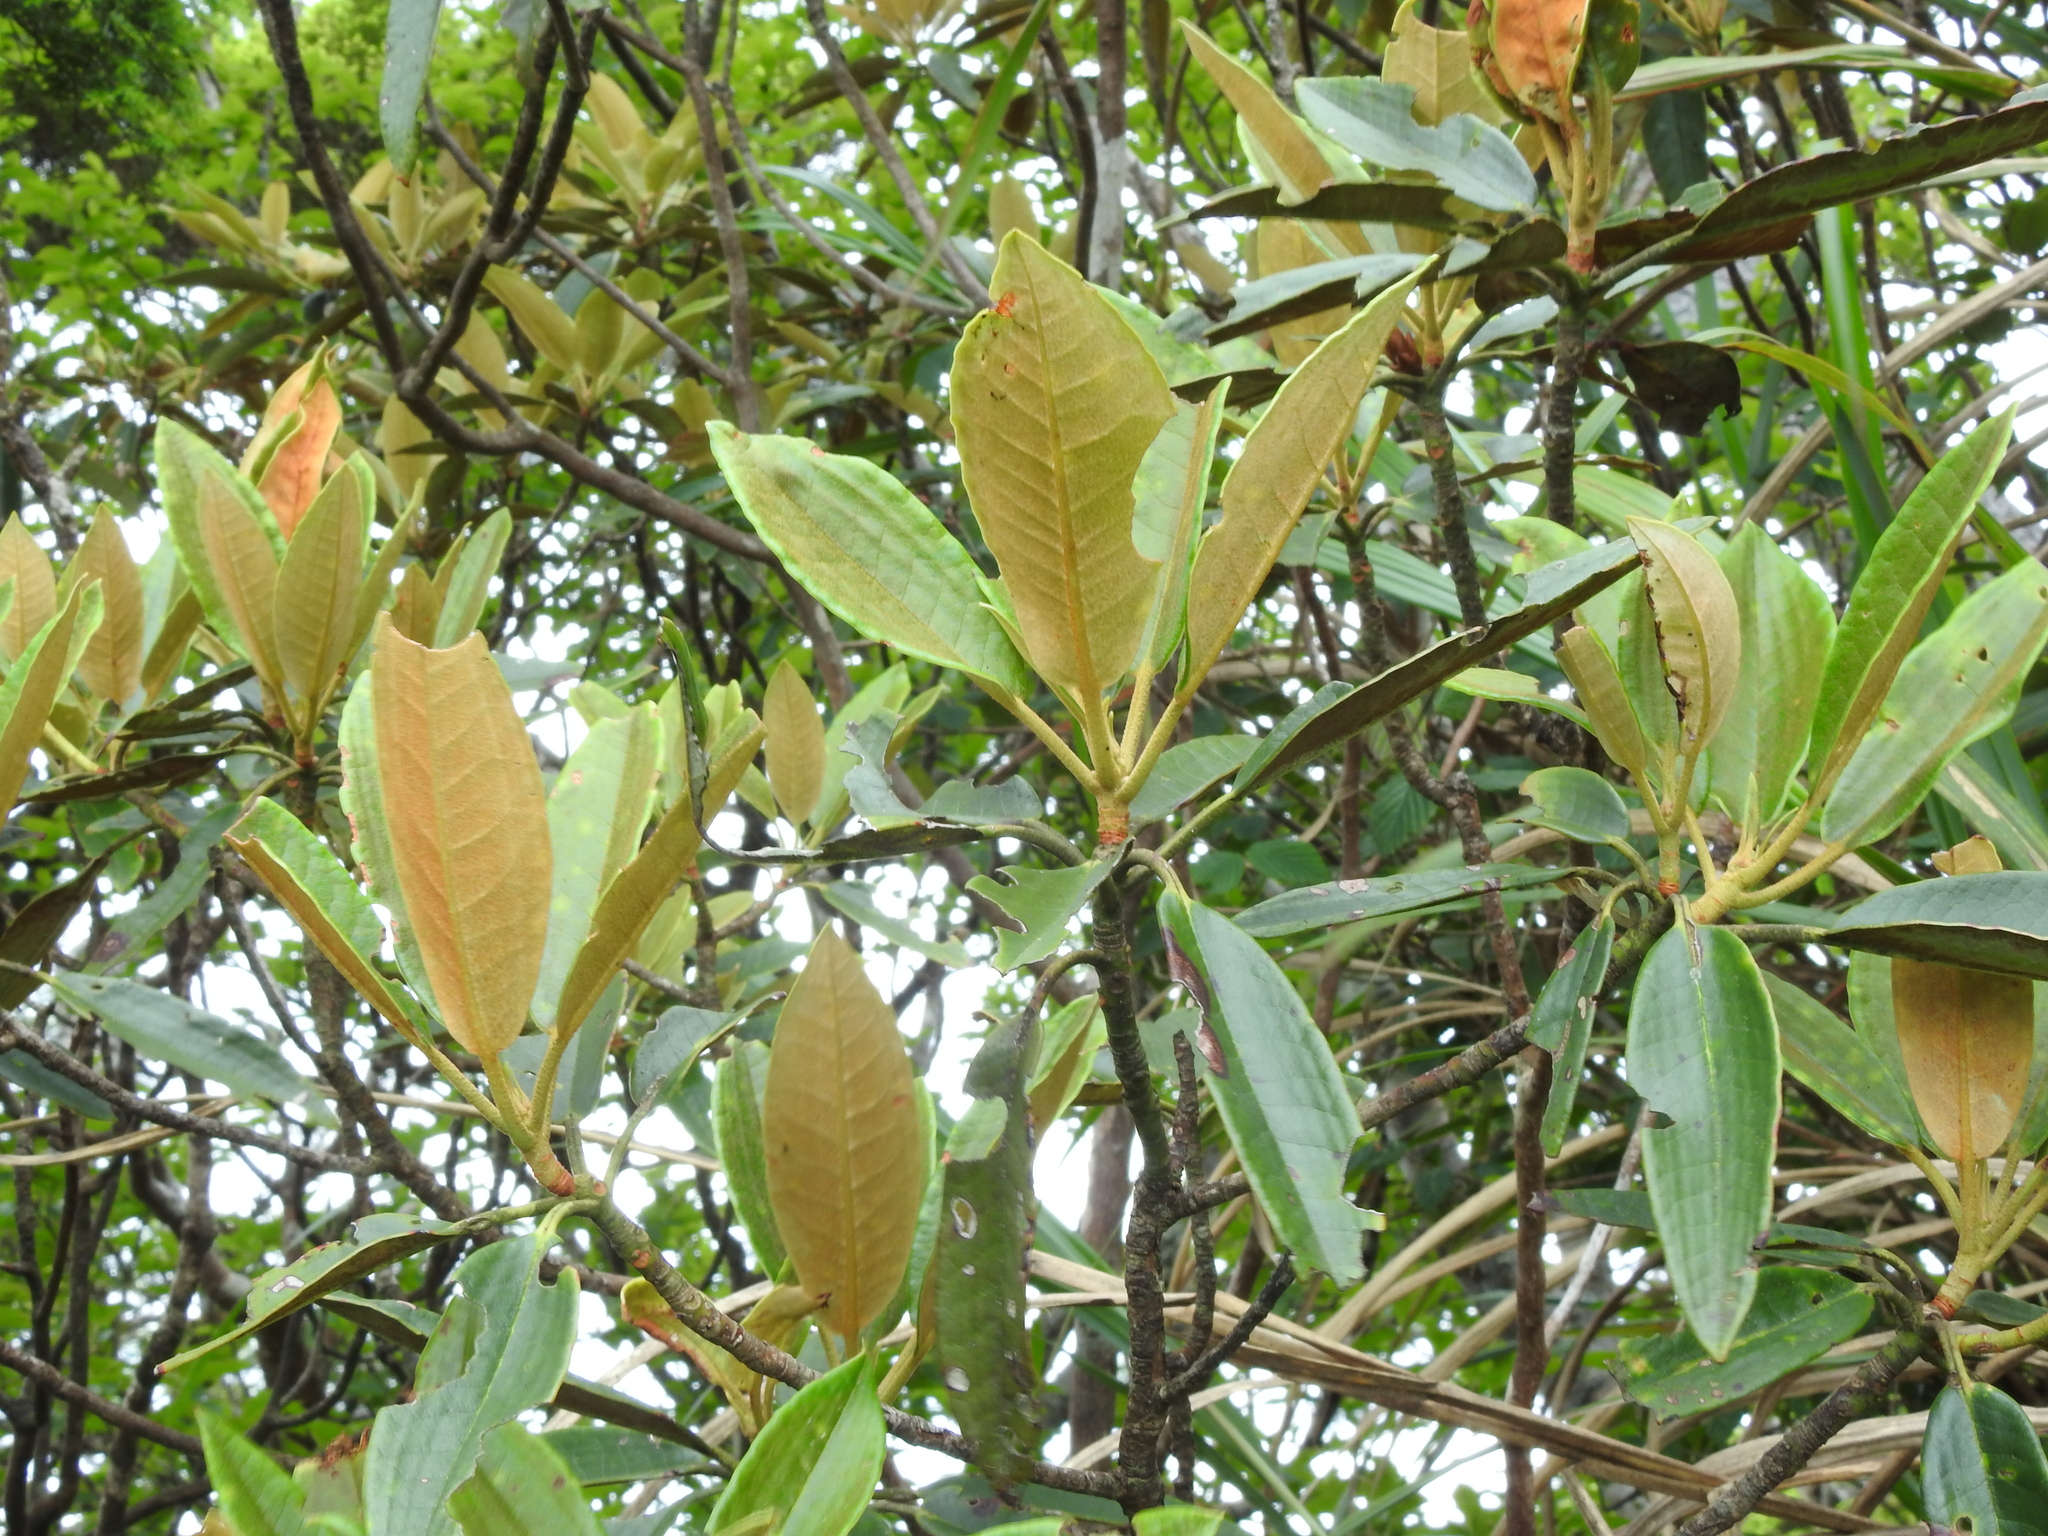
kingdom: Plantae
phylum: Tracheophyta
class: Magnoliopsida
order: Ericales
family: Ericaceae
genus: Rhododendron
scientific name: Rhododendron hyperythrum
